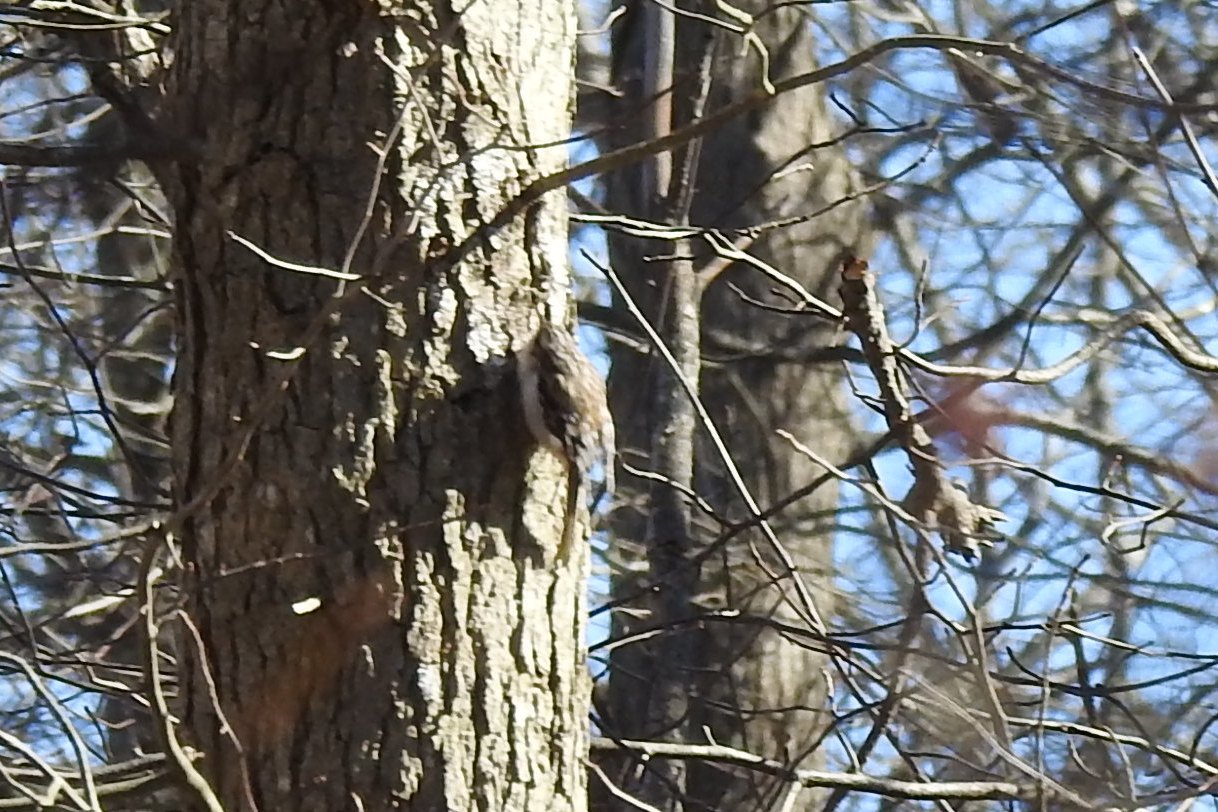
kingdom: Animalia
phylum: Chordata
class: Aves
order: Passeriformes
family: Certhiidae
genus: Certhia
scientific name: Certhia americana
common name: Brown creeper
